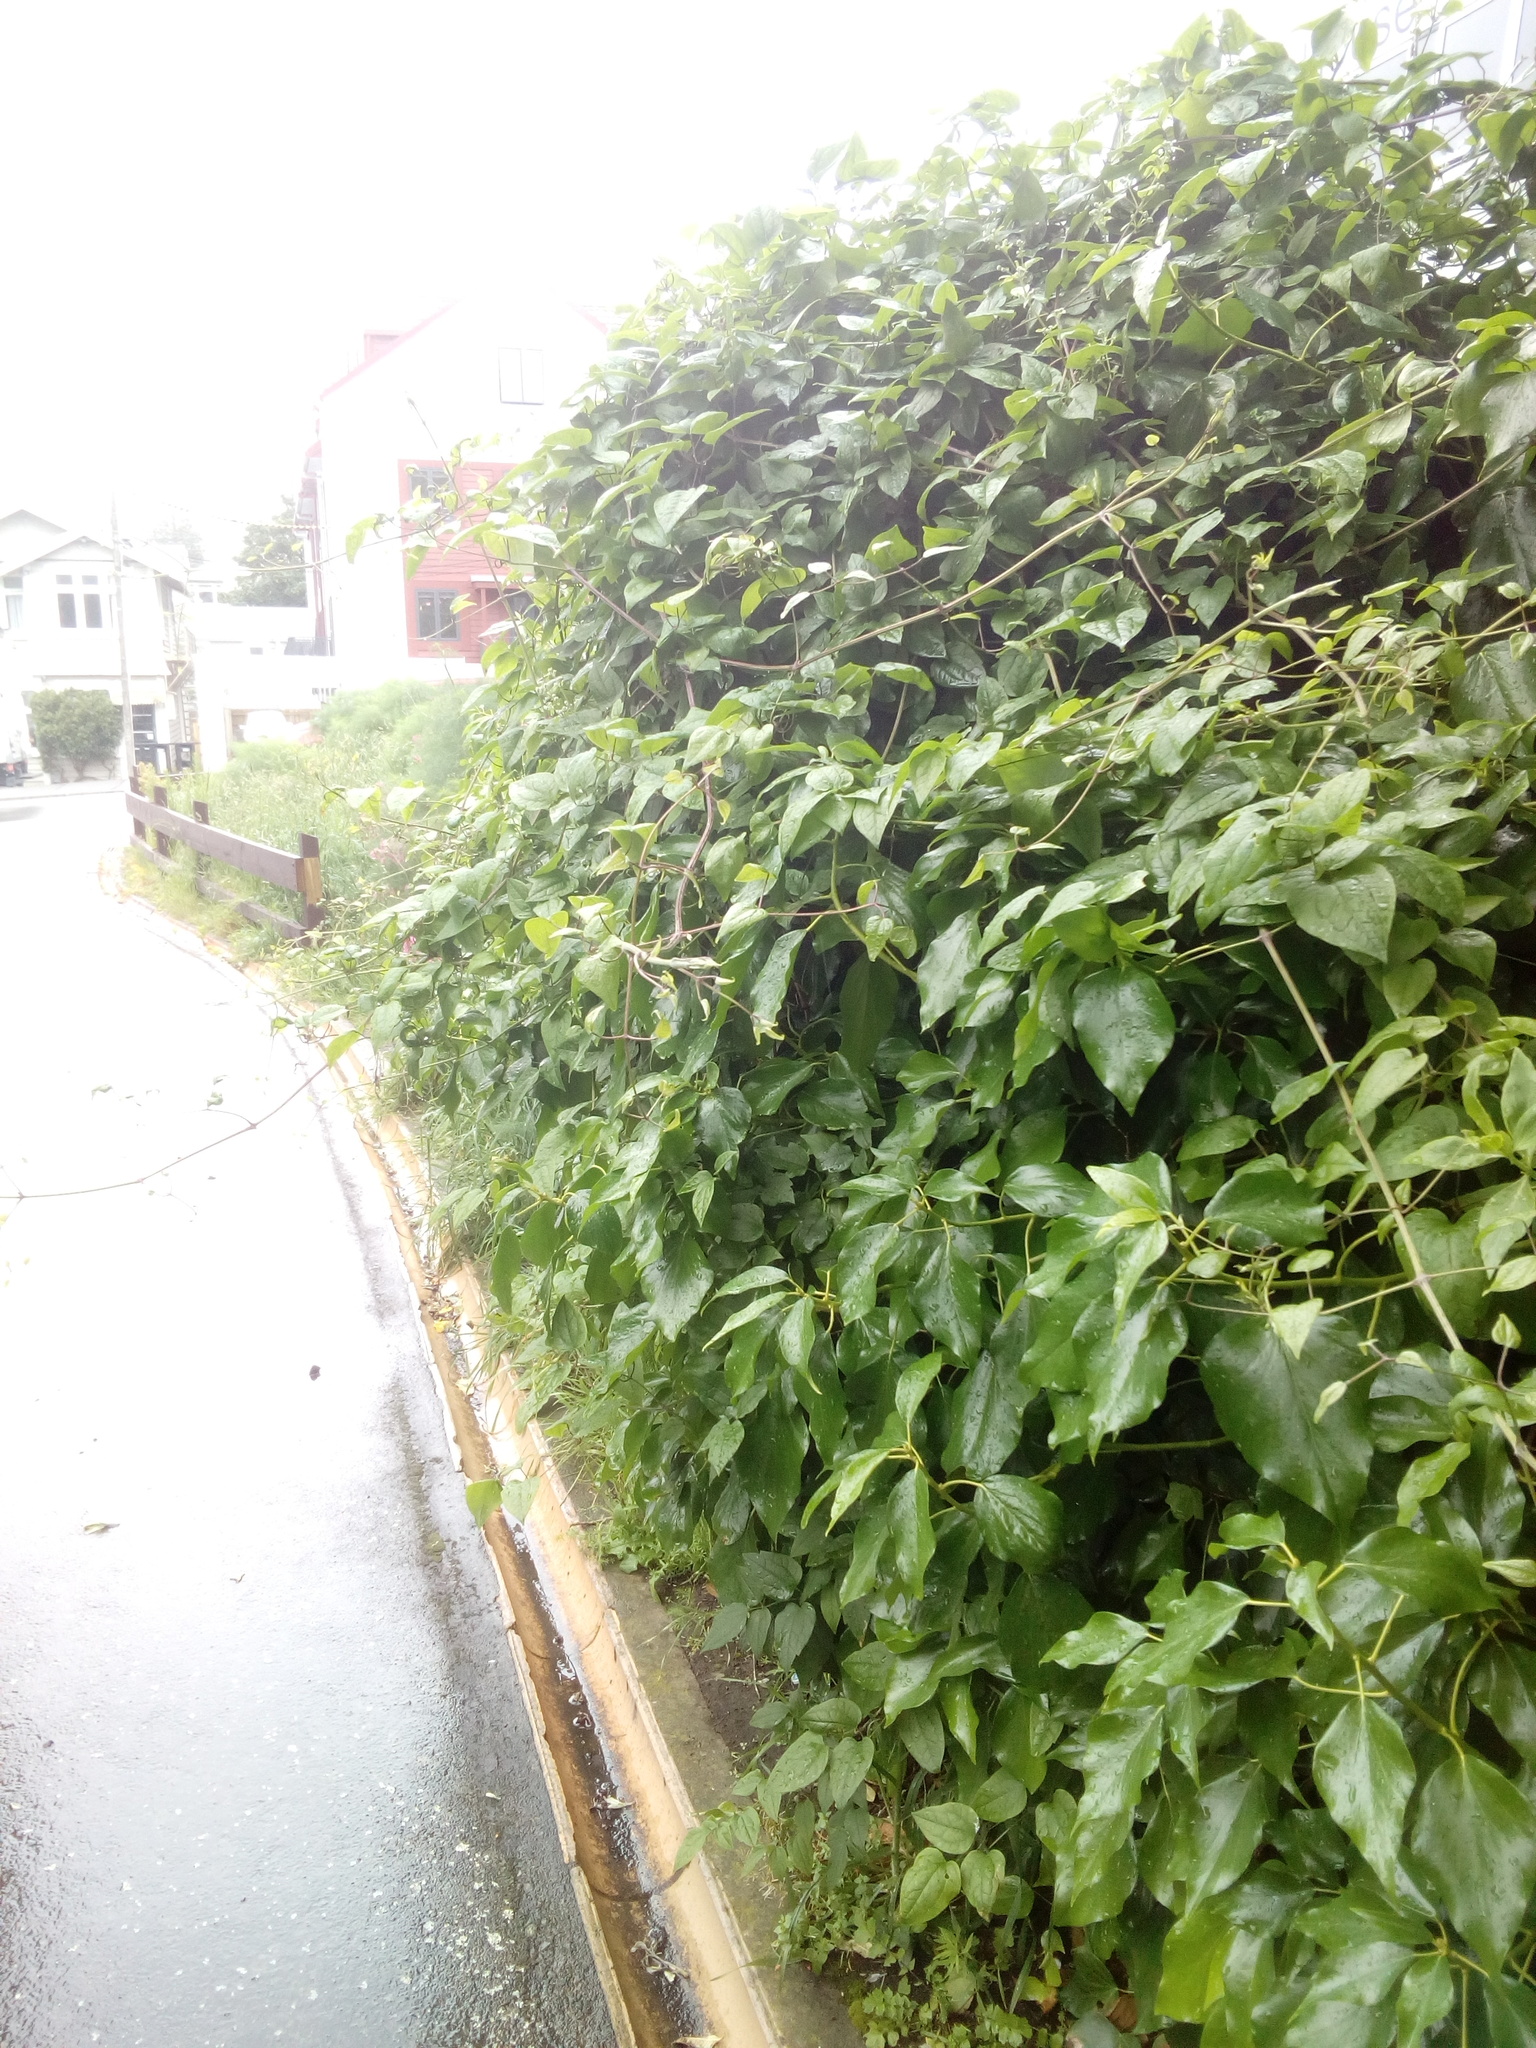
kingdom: Plantae
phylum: Tracheophyta
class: Magnoliopsida
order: Ranunculales
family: Ranunculaceae
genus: Clematis
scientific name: Clematis vitalba
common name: Evergreen clematis
